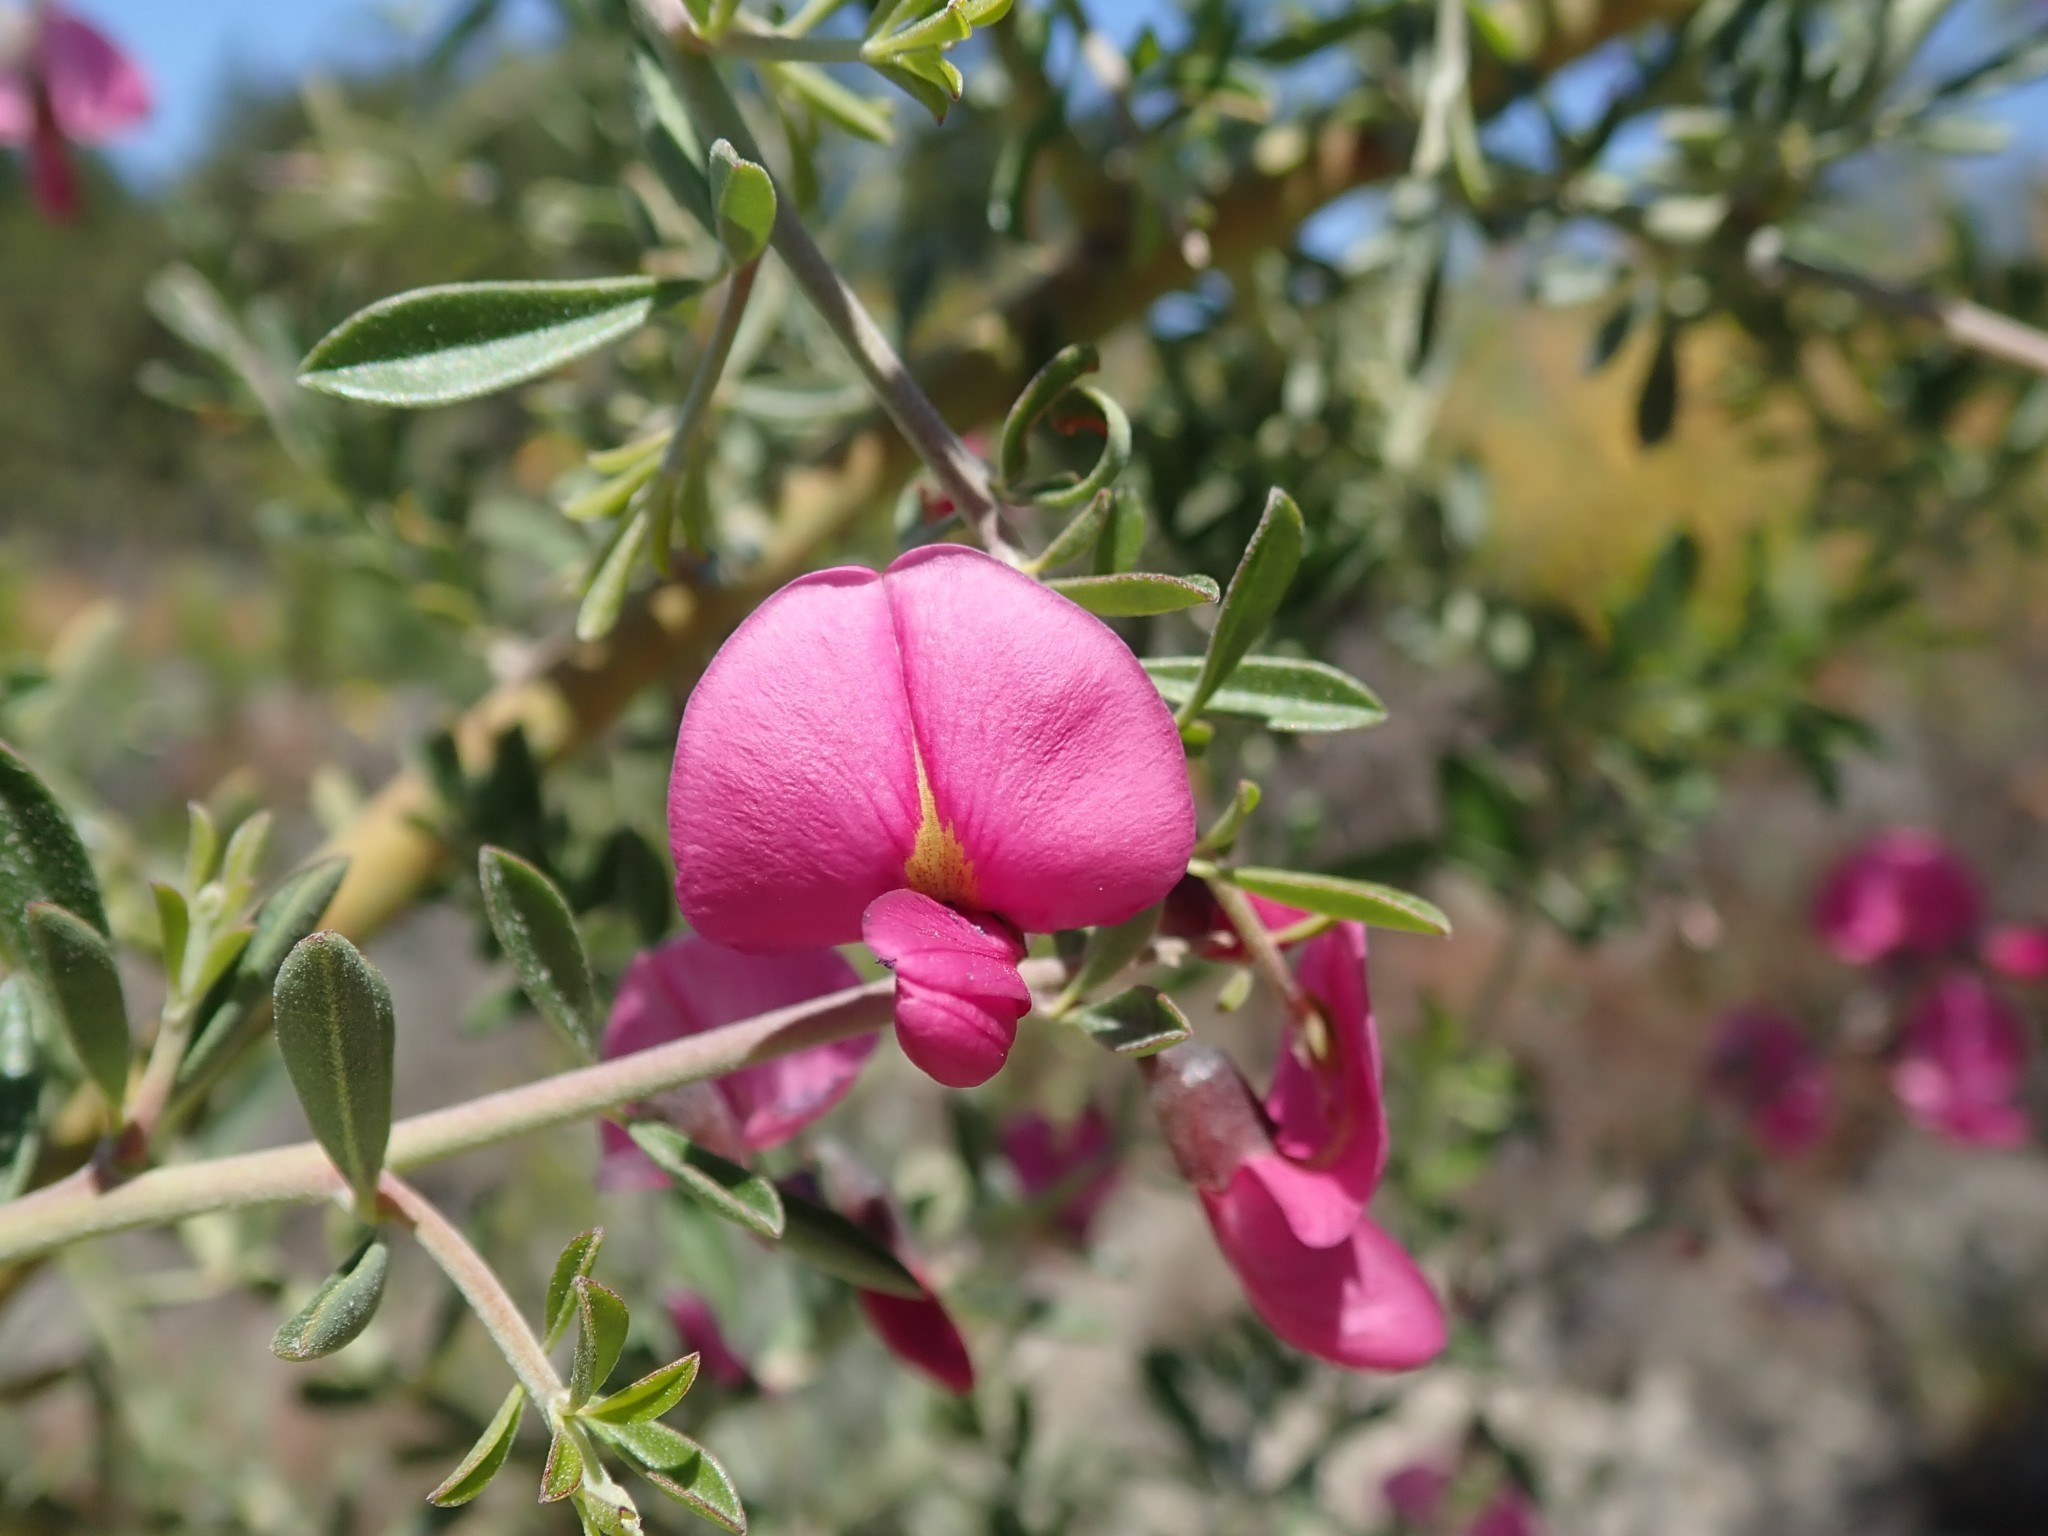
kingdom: Plantae
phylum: Tracheophyta
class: Magnoliopsida
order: Fabales
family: Fabaceae
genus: Pickeringia
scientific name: Pickeringia montana
